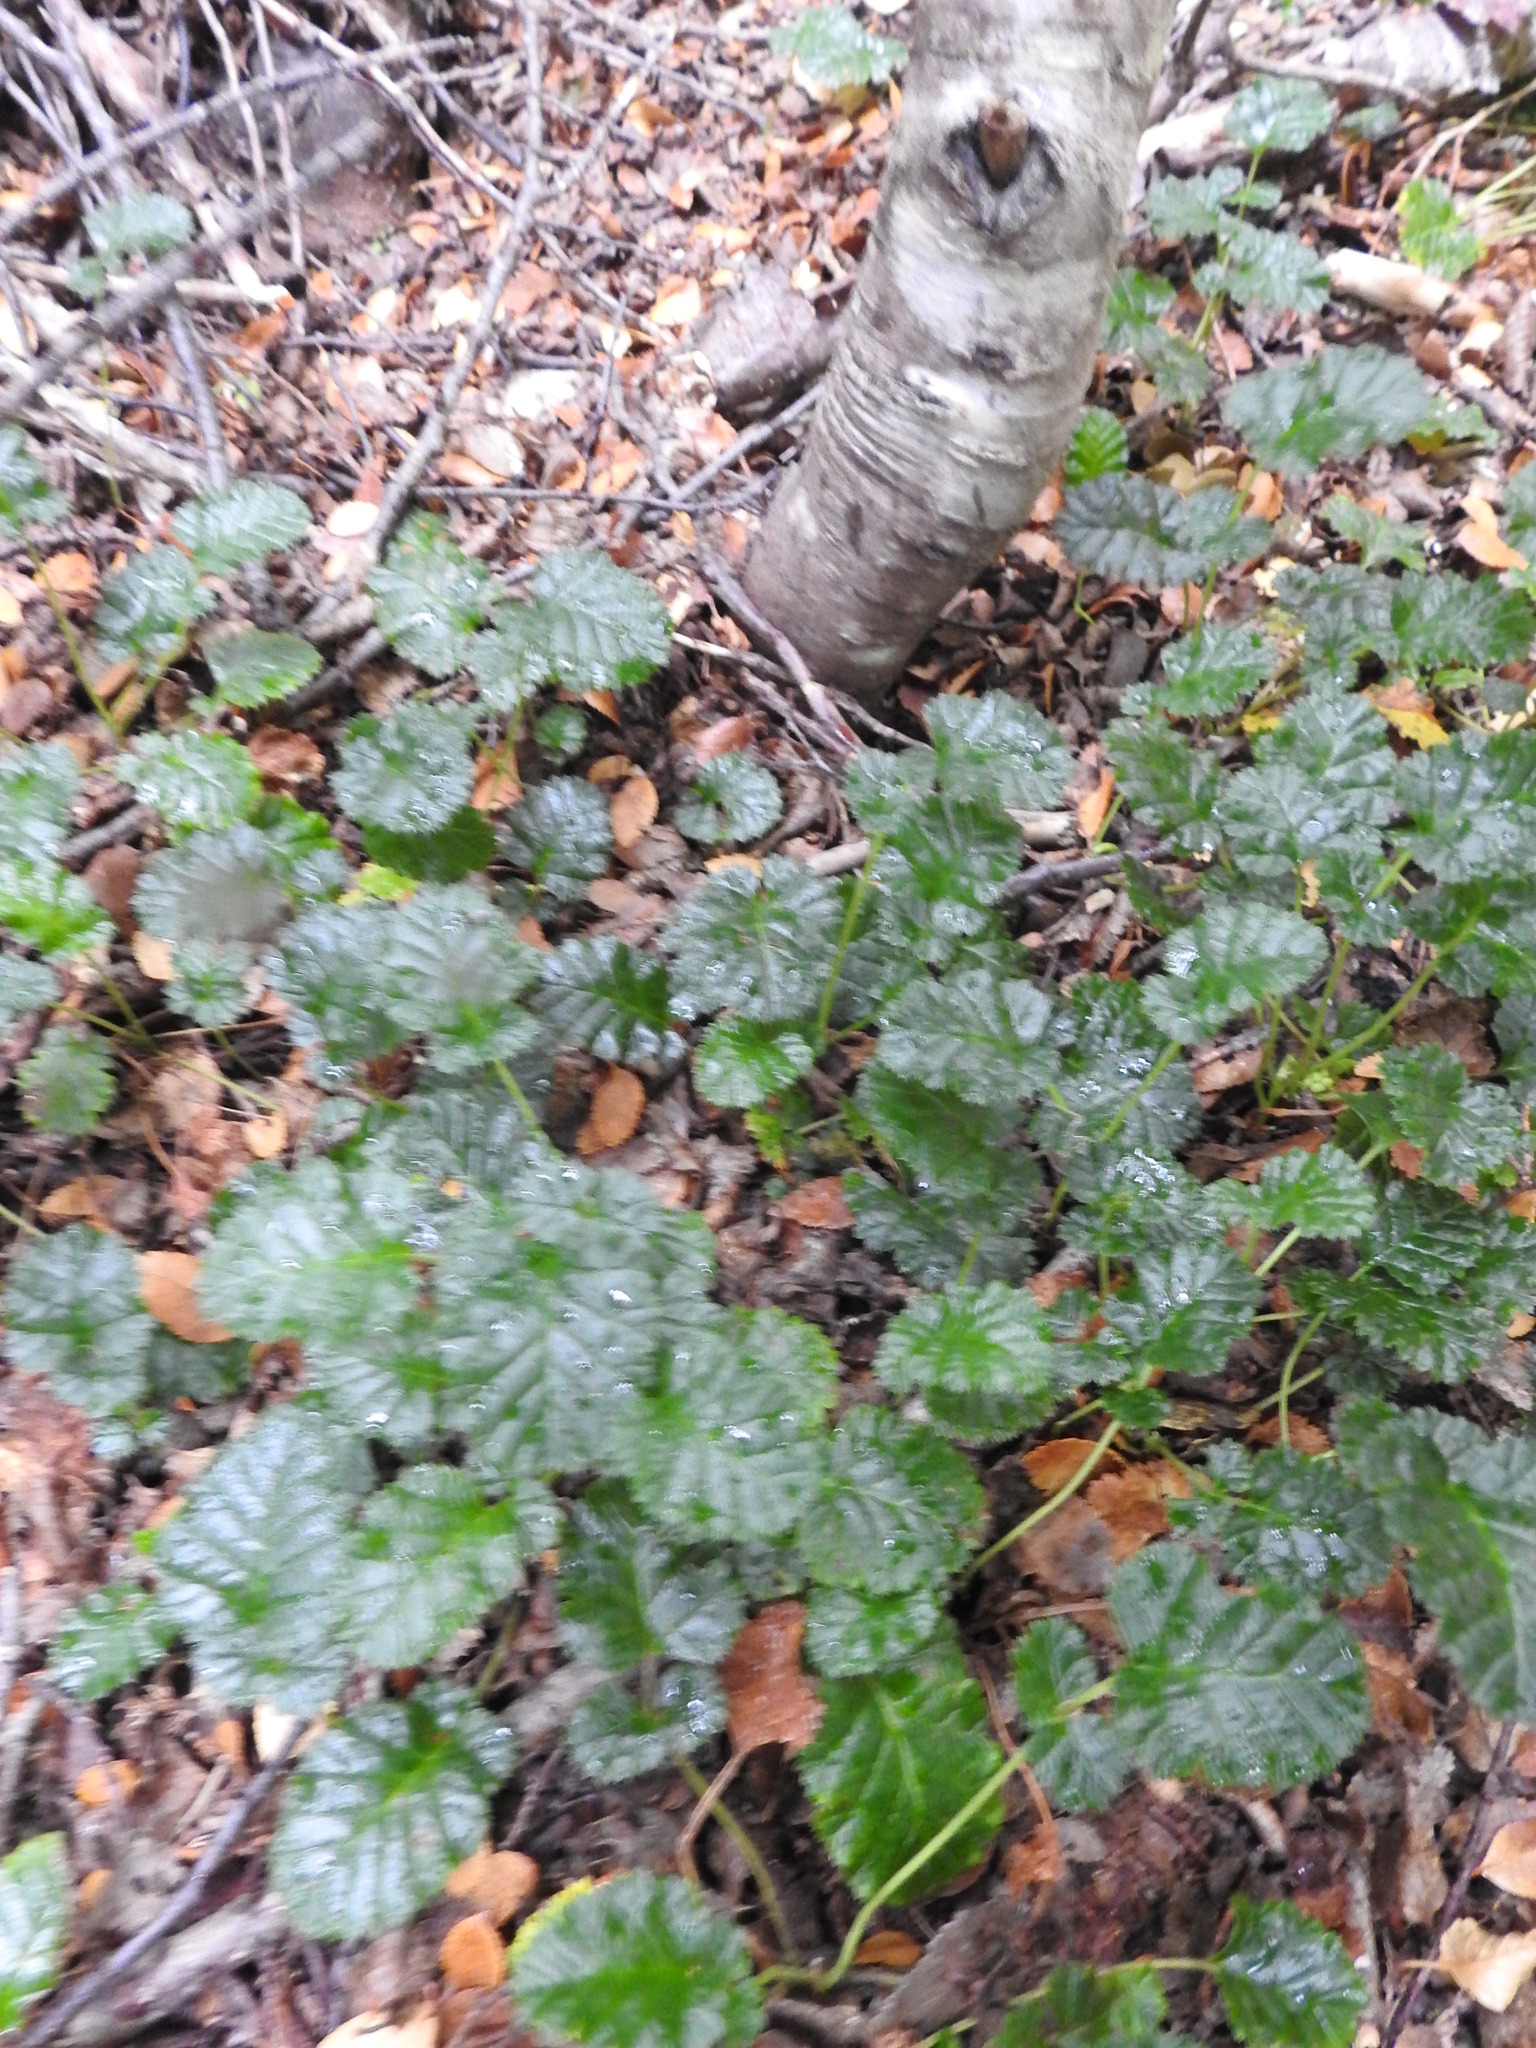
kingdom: Plantae
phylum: Tracheophyta
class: Magnoliopsida
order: Rosales
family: Rosaceae
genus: Rubus
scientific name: Rubus geoides
